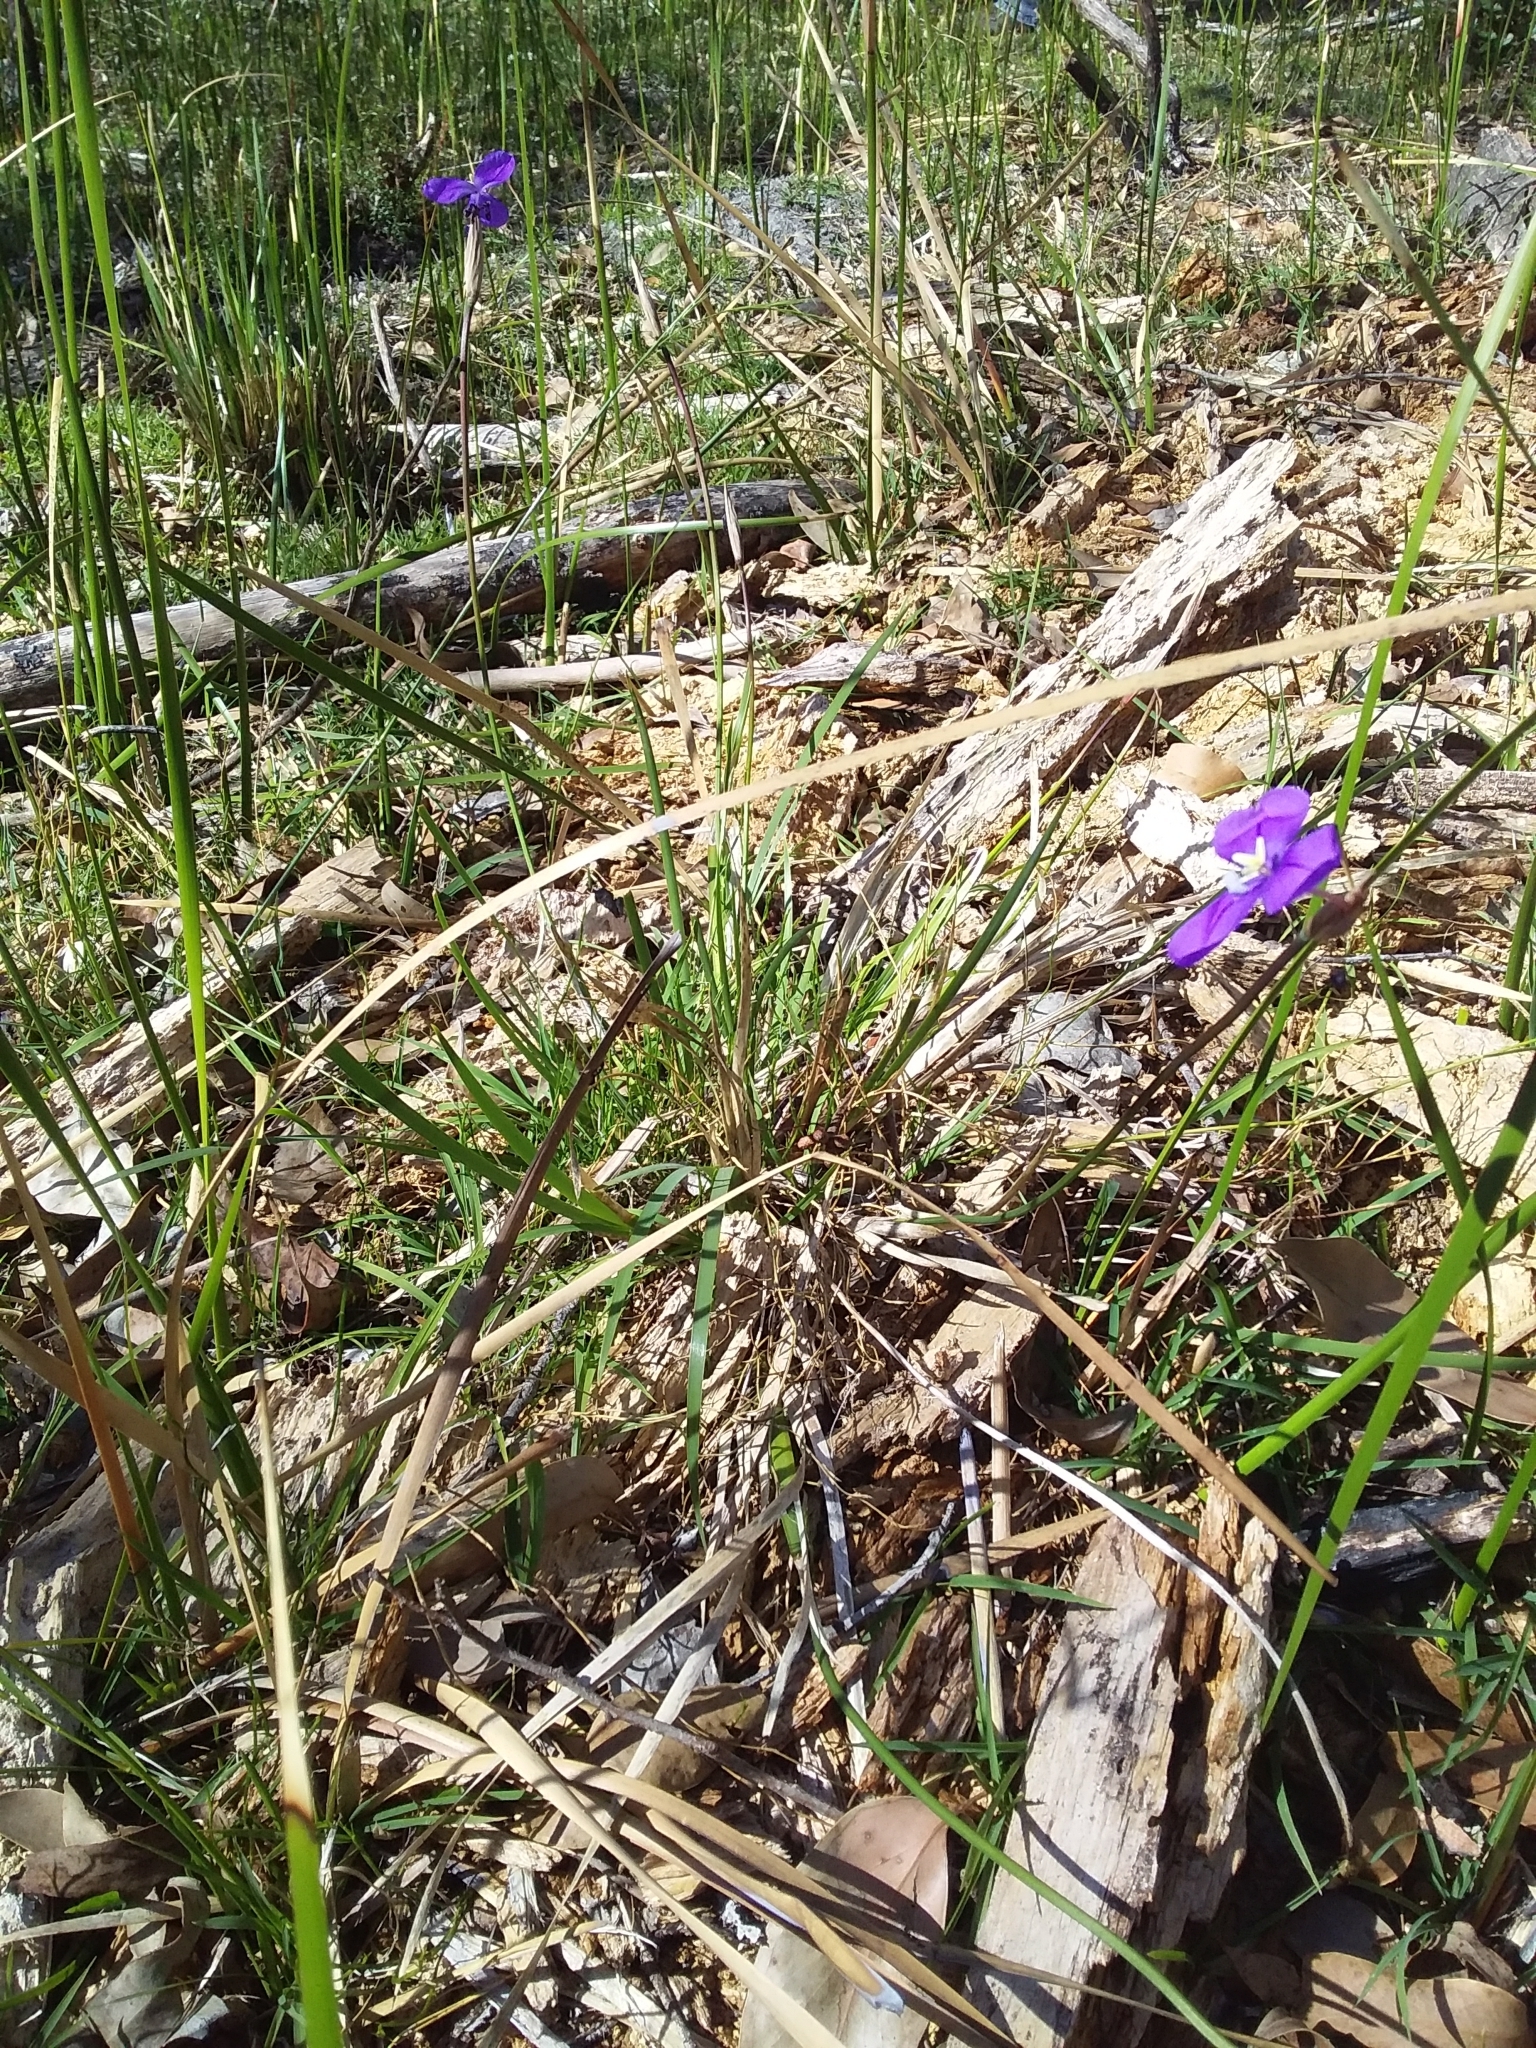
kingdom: Plantae
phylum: Tracheophyta
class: Liliopsida
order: Asparagales
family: Iridaceae
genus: Patersonia
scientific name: Patersonia occidentalis
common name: Long purple-flag
